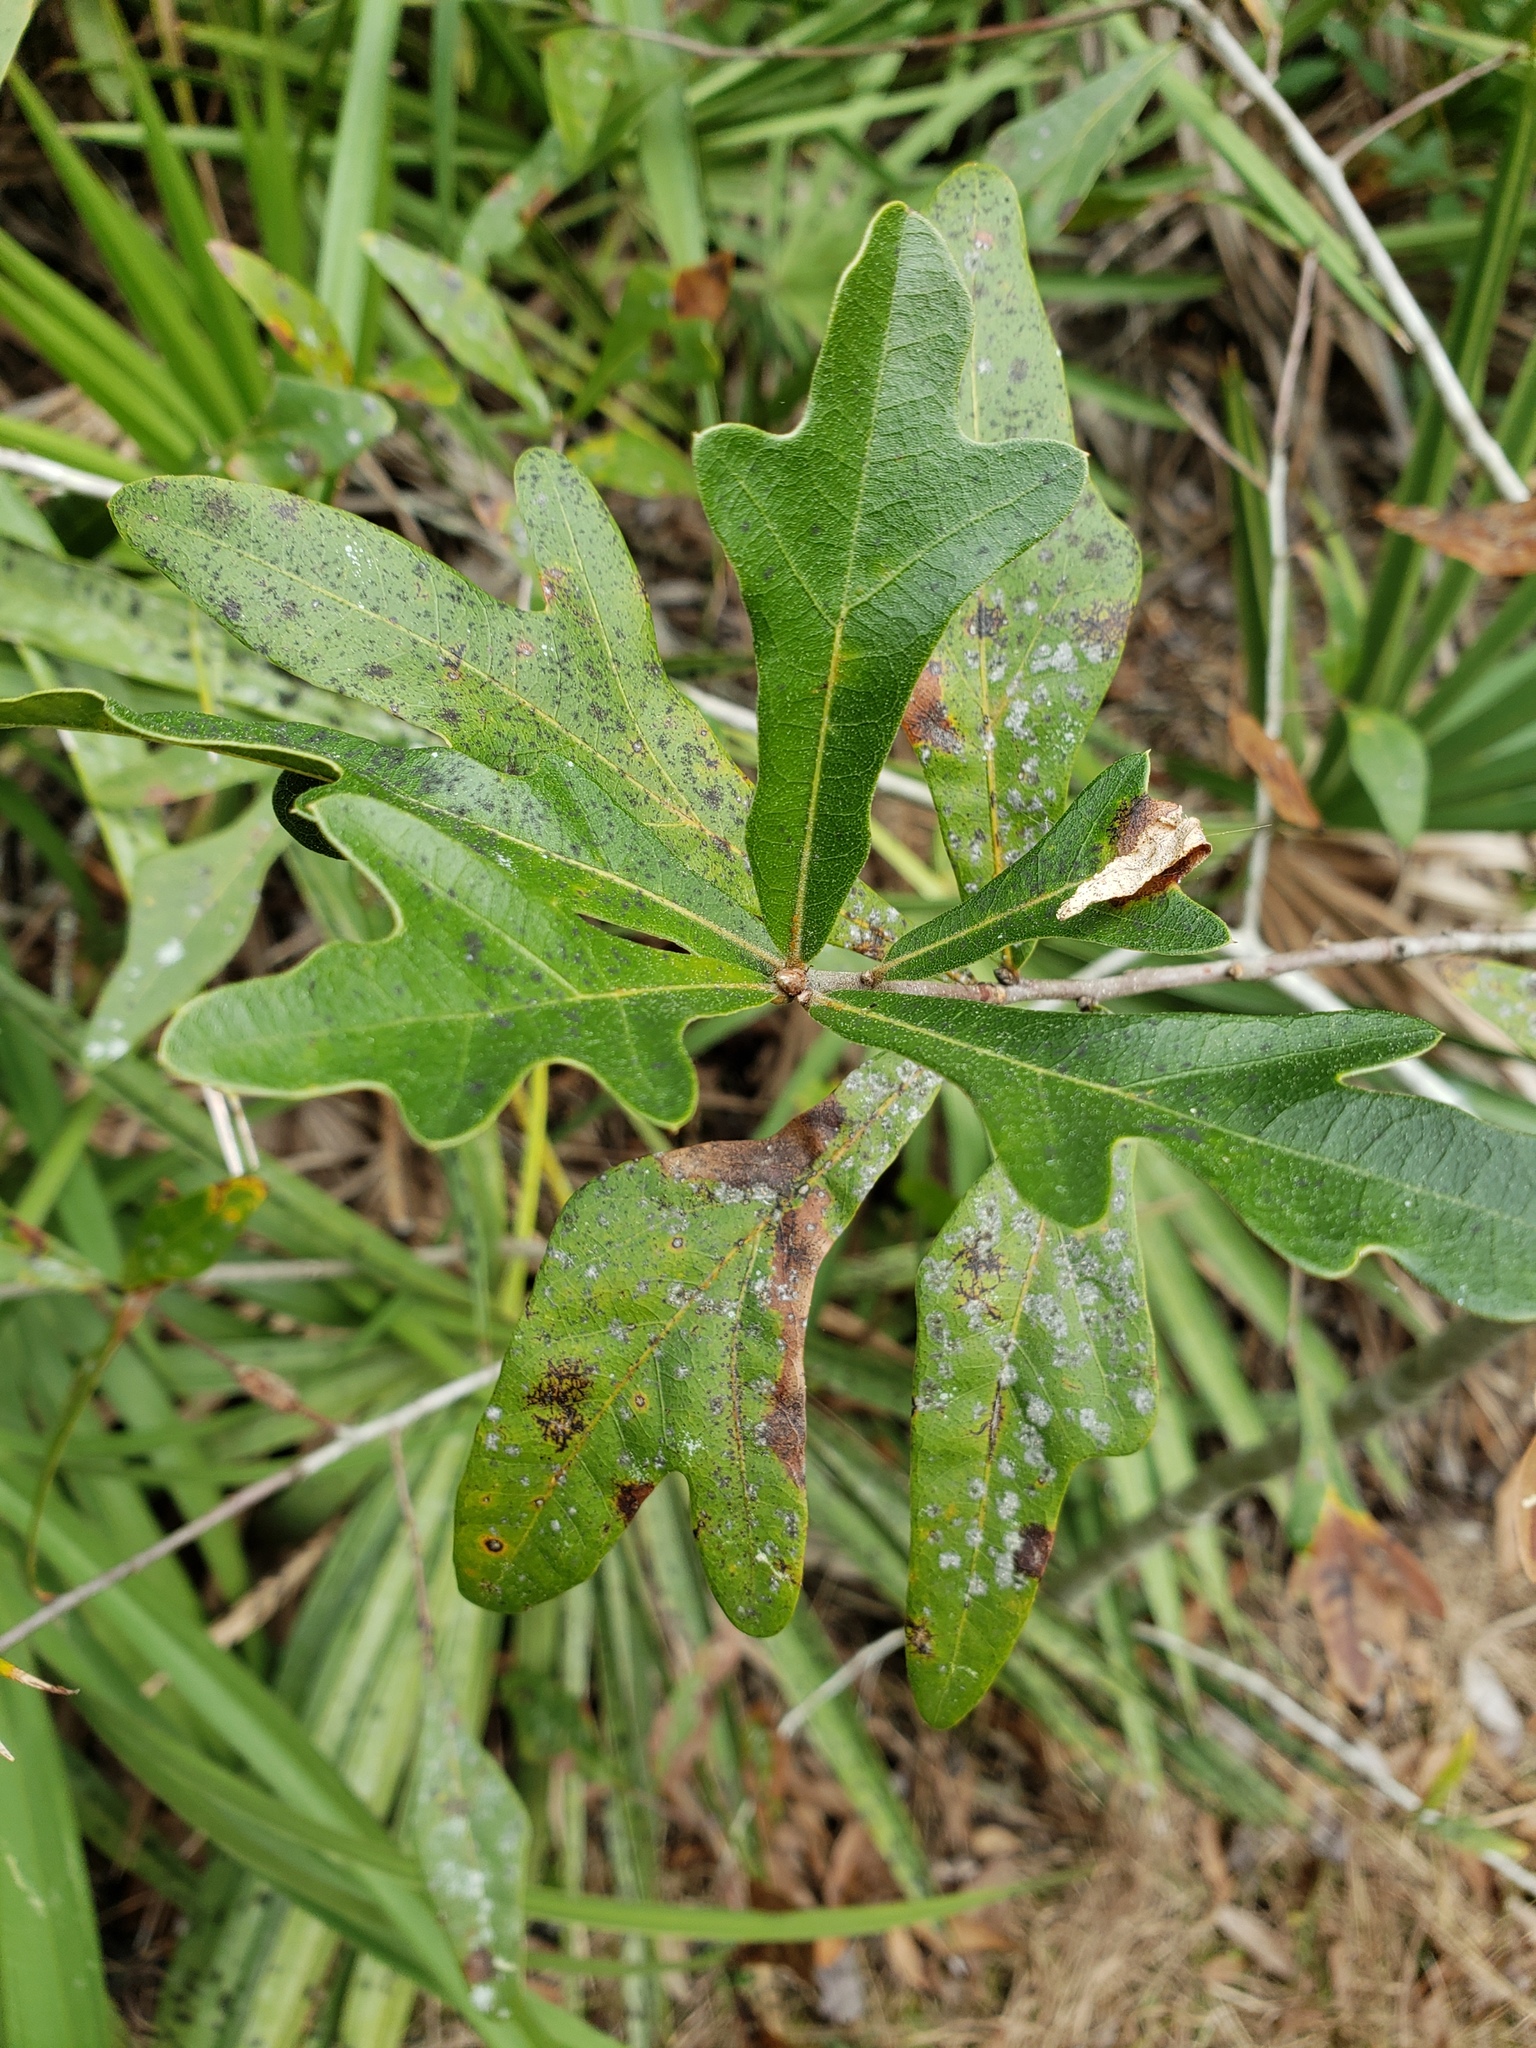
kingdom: Plantae
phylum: Tracheophyta
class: Magnoliopsida
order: Fagales
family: Fagaceae
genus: Quercus
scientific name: Quercus hemisphaerica
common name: Darlington oak
